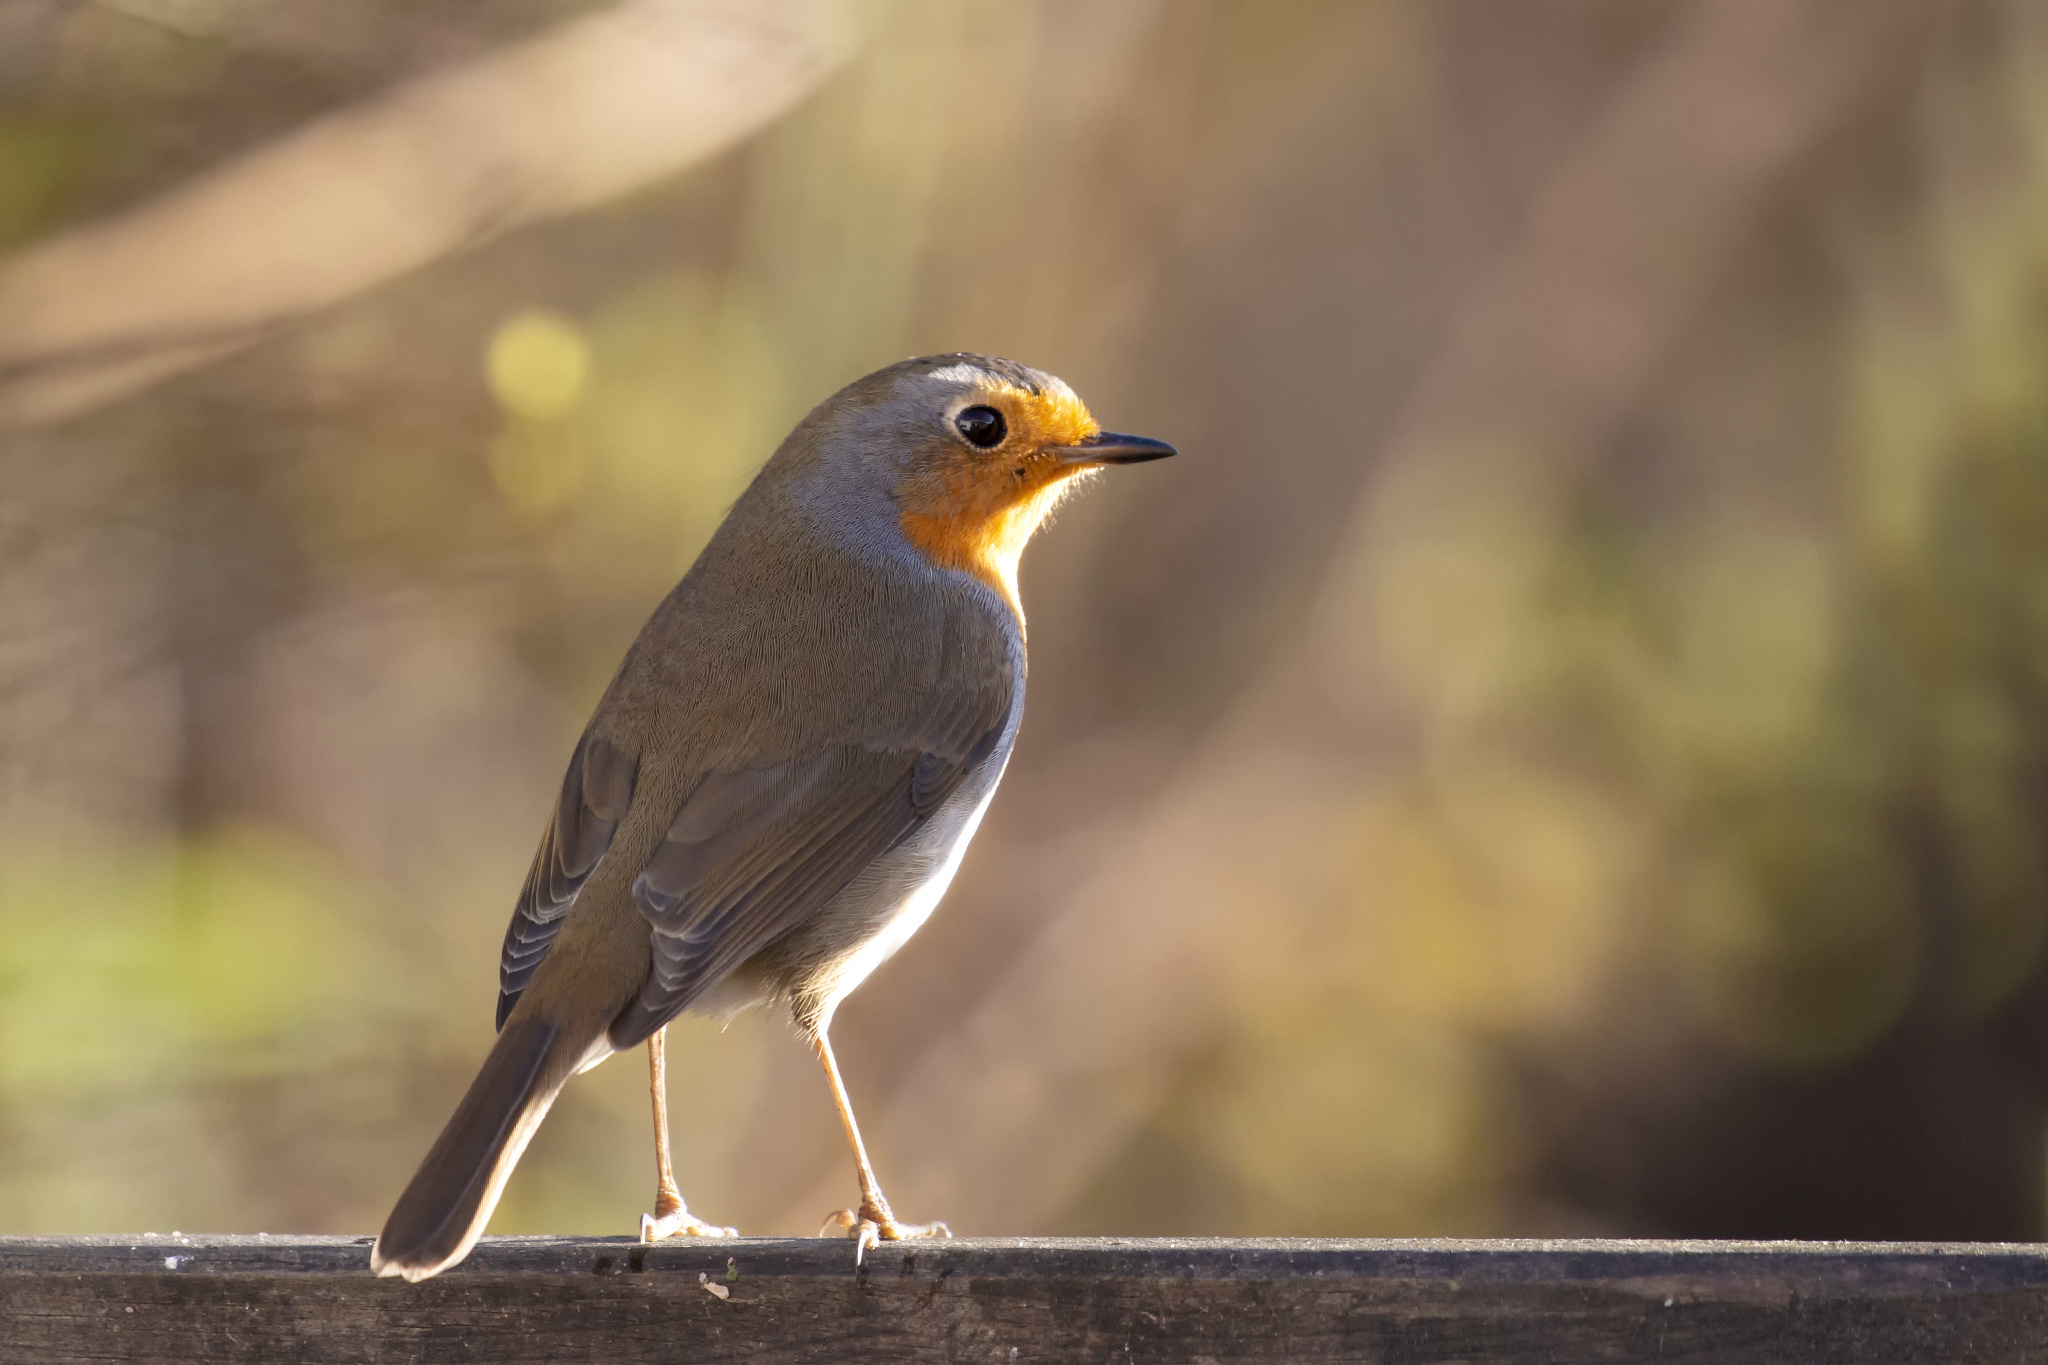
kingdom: Animalia
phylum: Chordata
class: Aves
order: Passeriformes
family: Muscicapidae
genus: Erithacus
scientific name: Erithacus rubecula
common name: European robin
